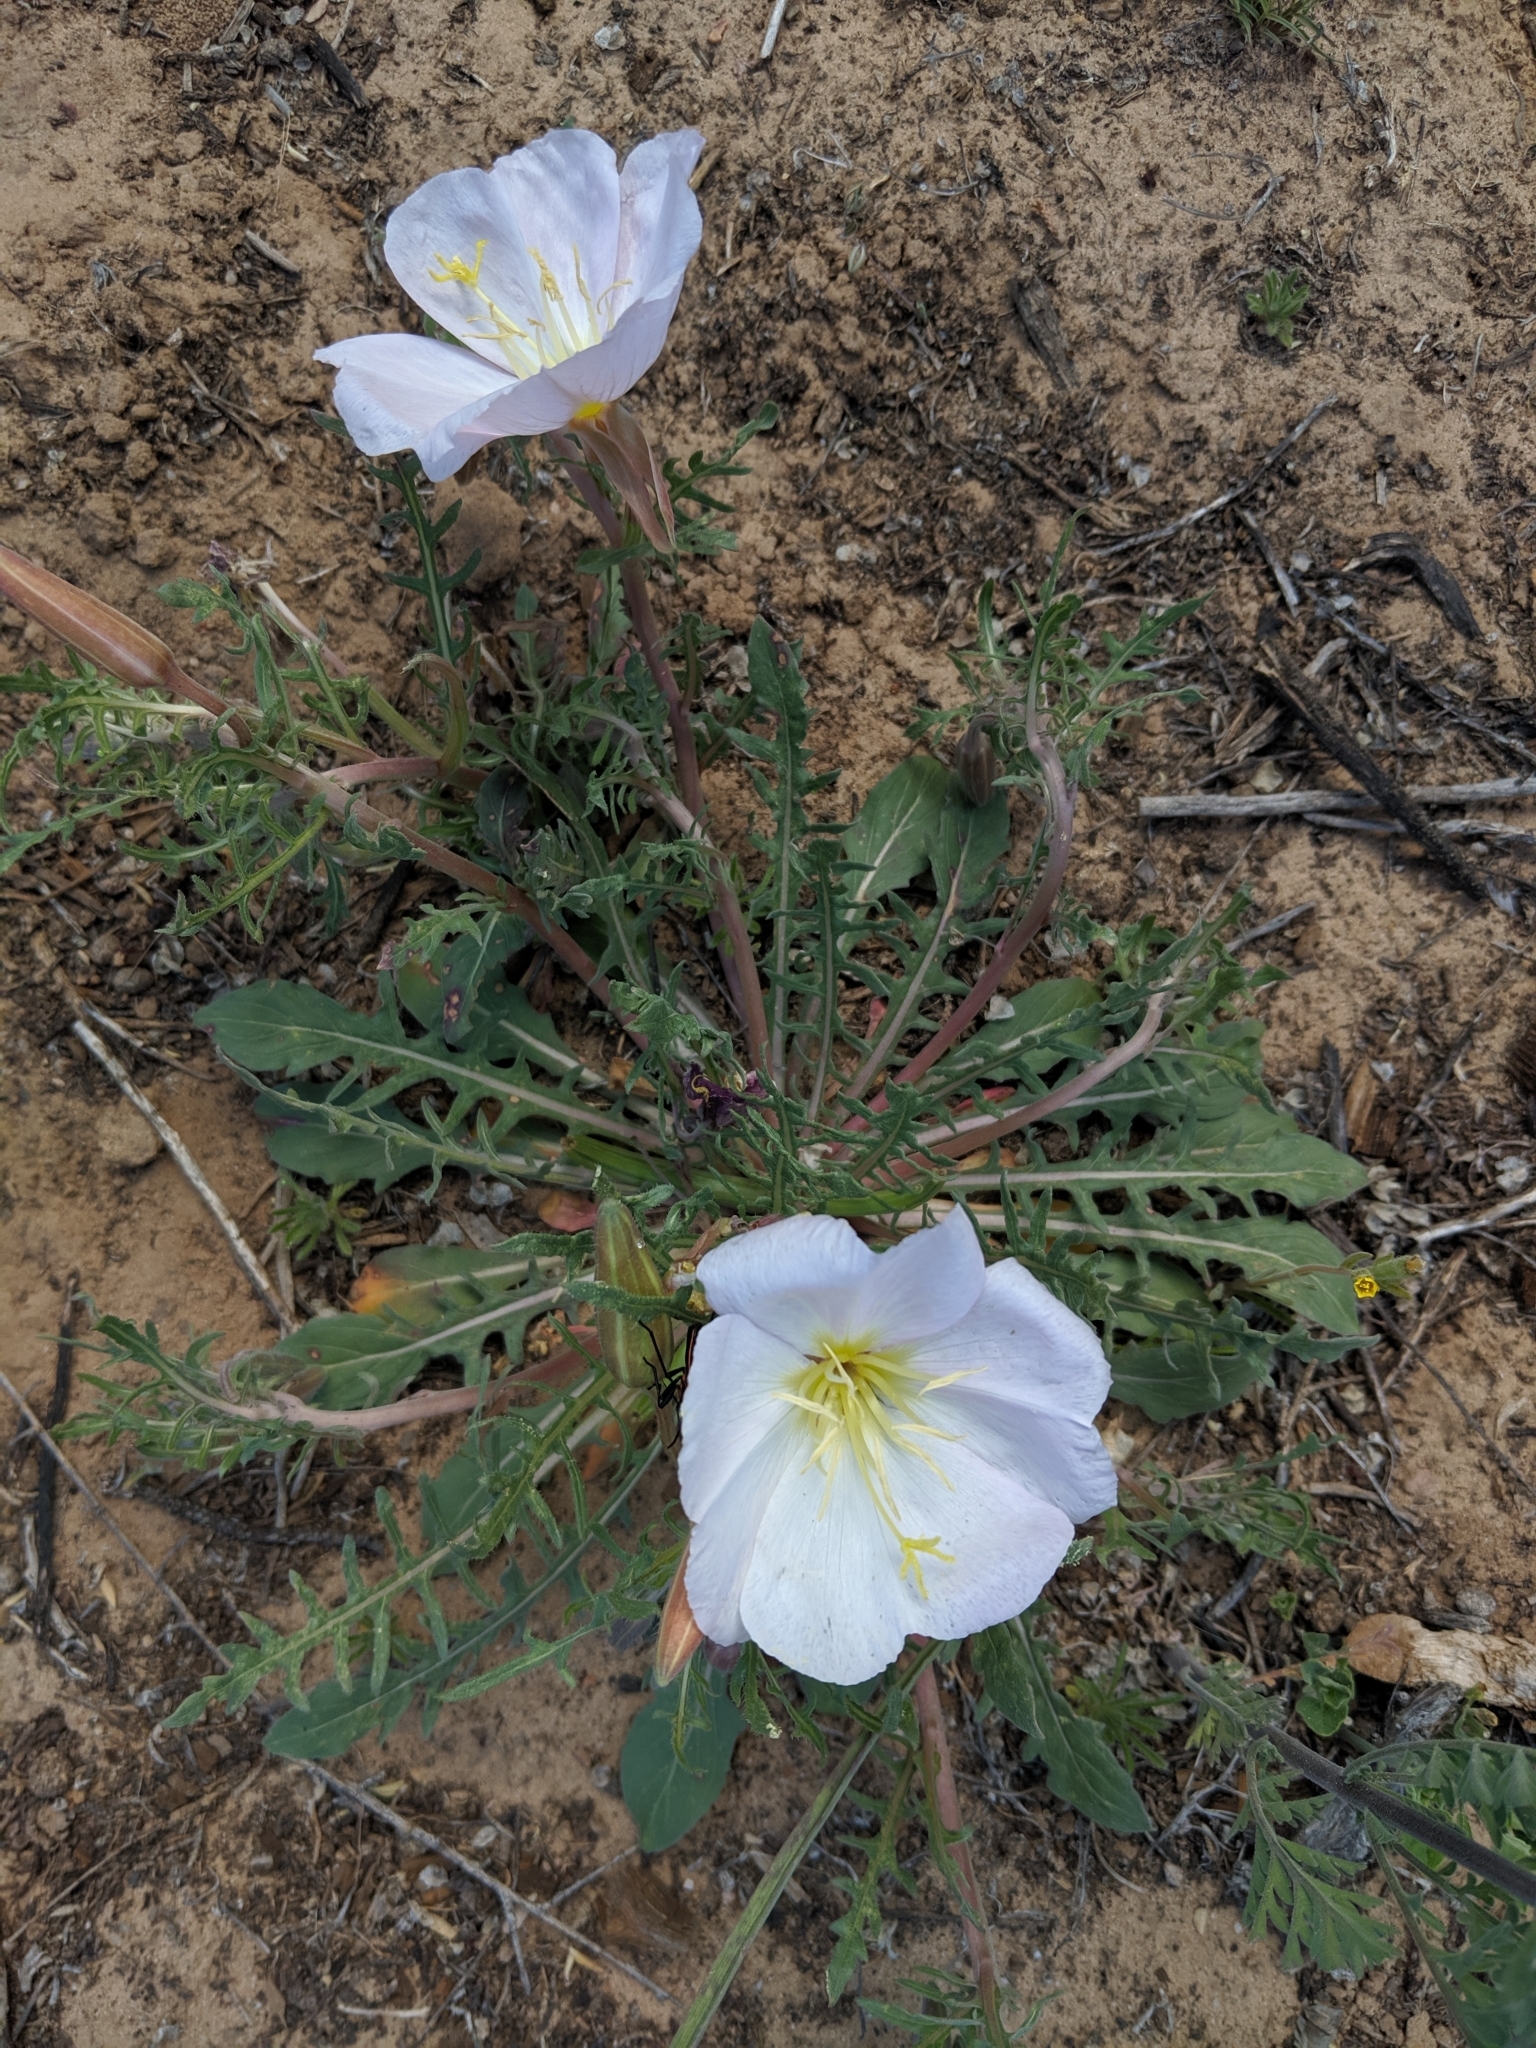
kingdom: Plantae
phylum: Tracheophyta
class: Magnoliopsida
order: Myrtales
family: Onagraceae
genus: Oenothera
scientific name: Oenothera cespitosa
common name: Tufted evening-primrose
